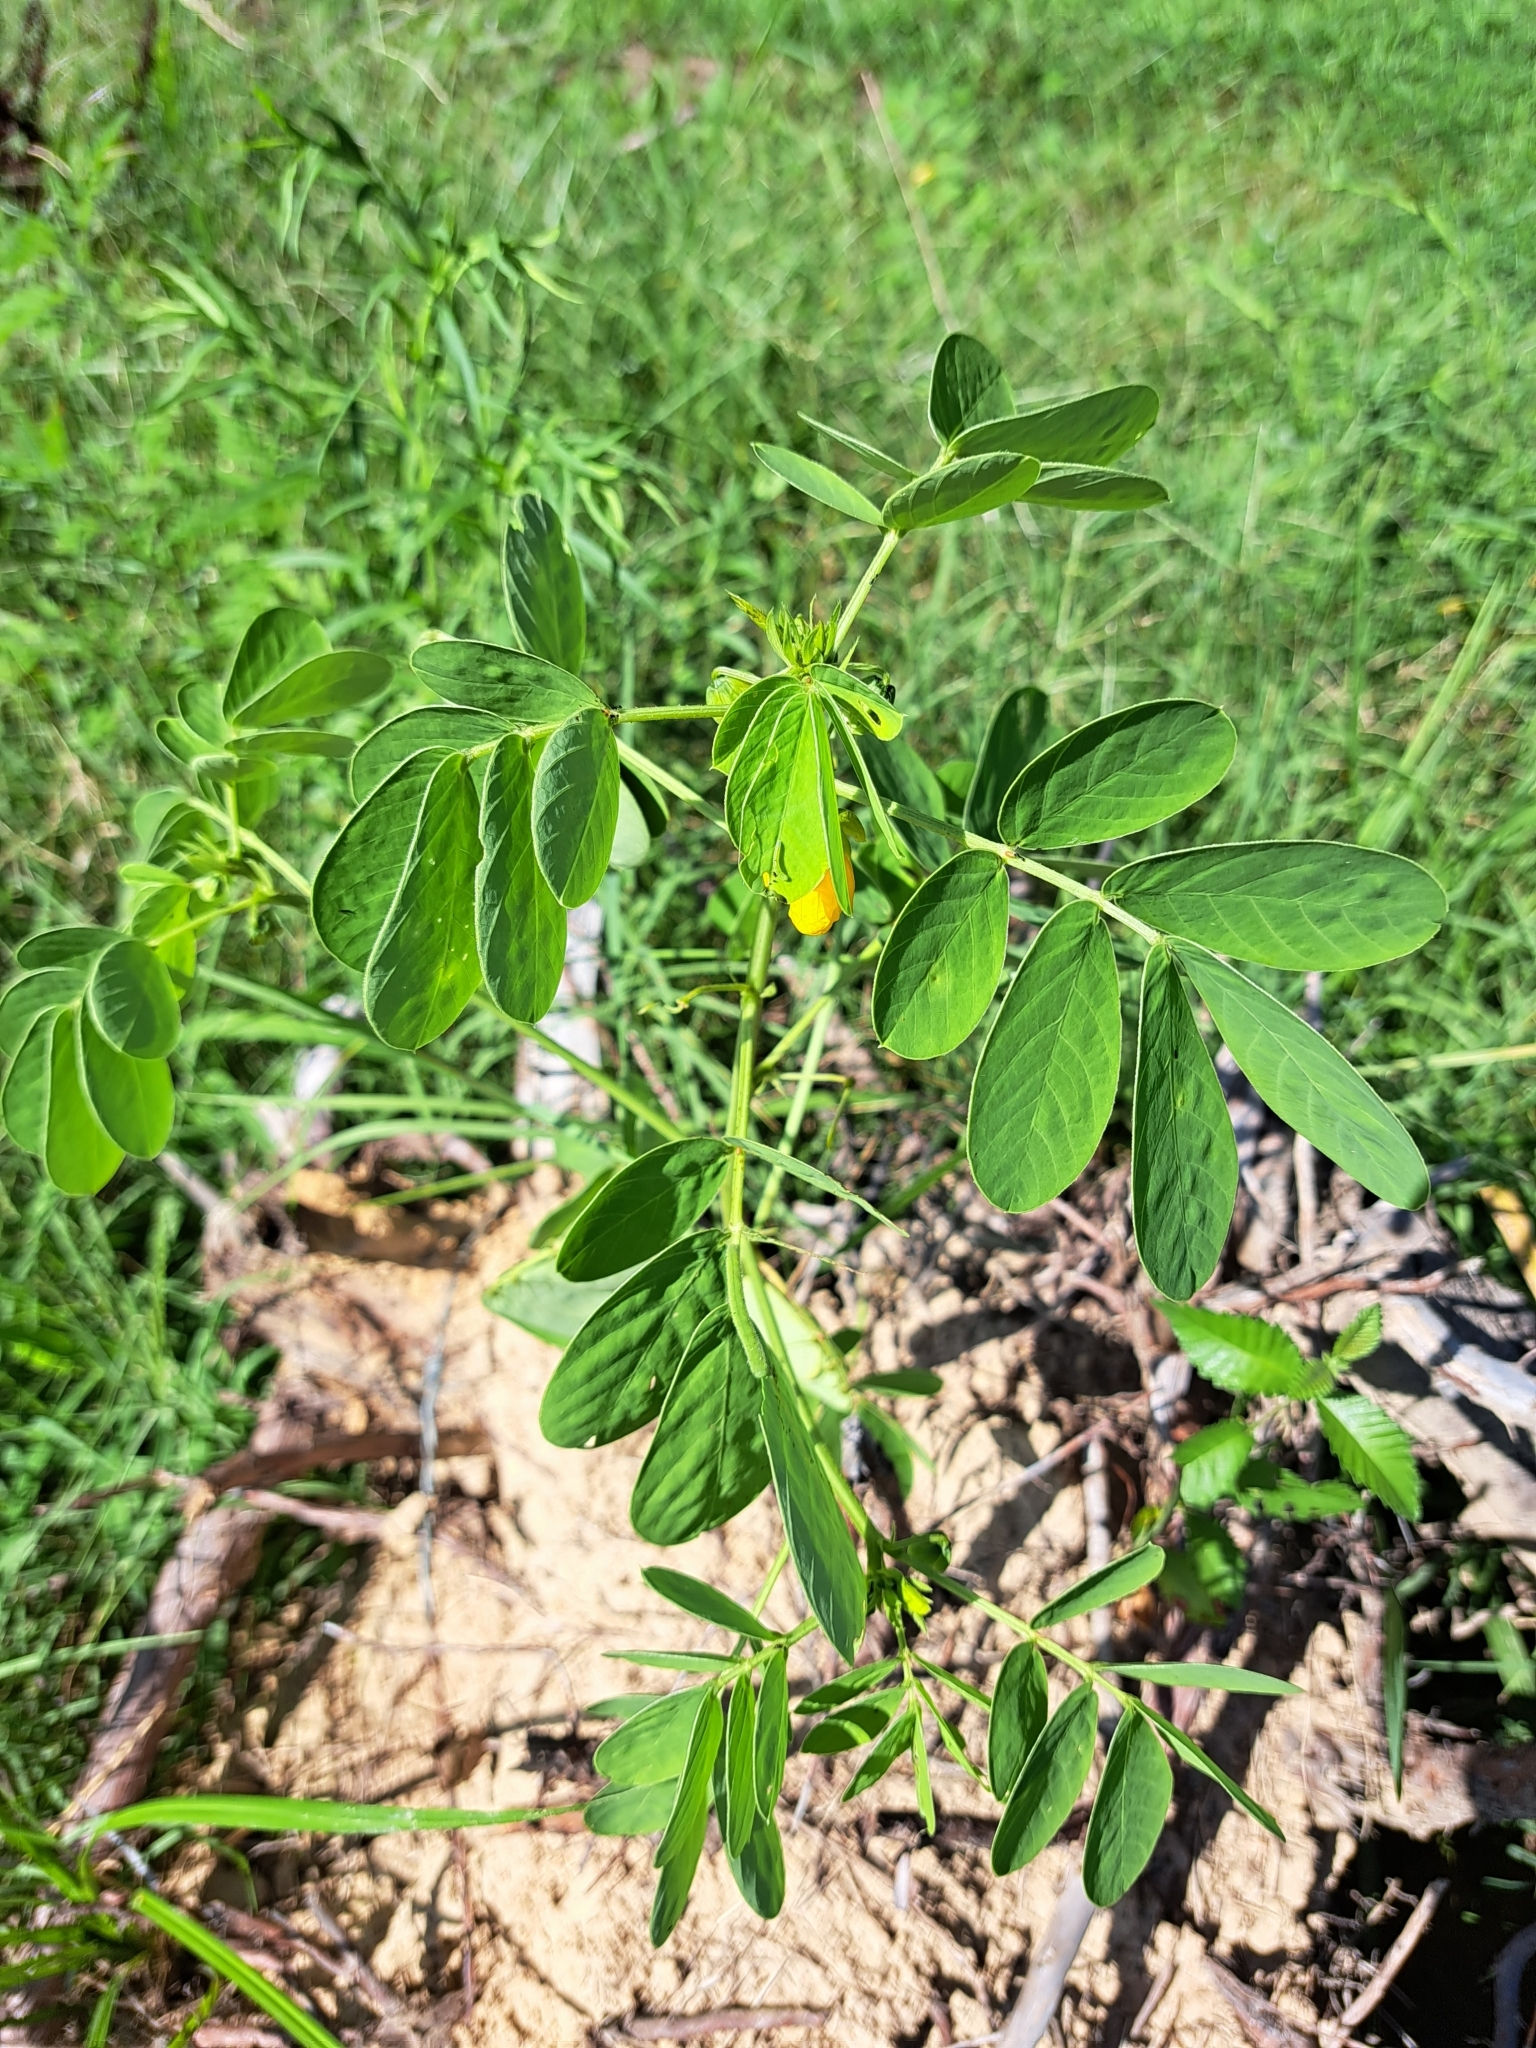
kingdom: Plantae
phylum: Tracheophyta
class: Magnoliopsida
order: Fabales
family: Fabaceae
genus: Senna
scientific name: Senna obtusifolia
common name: Java-bean
